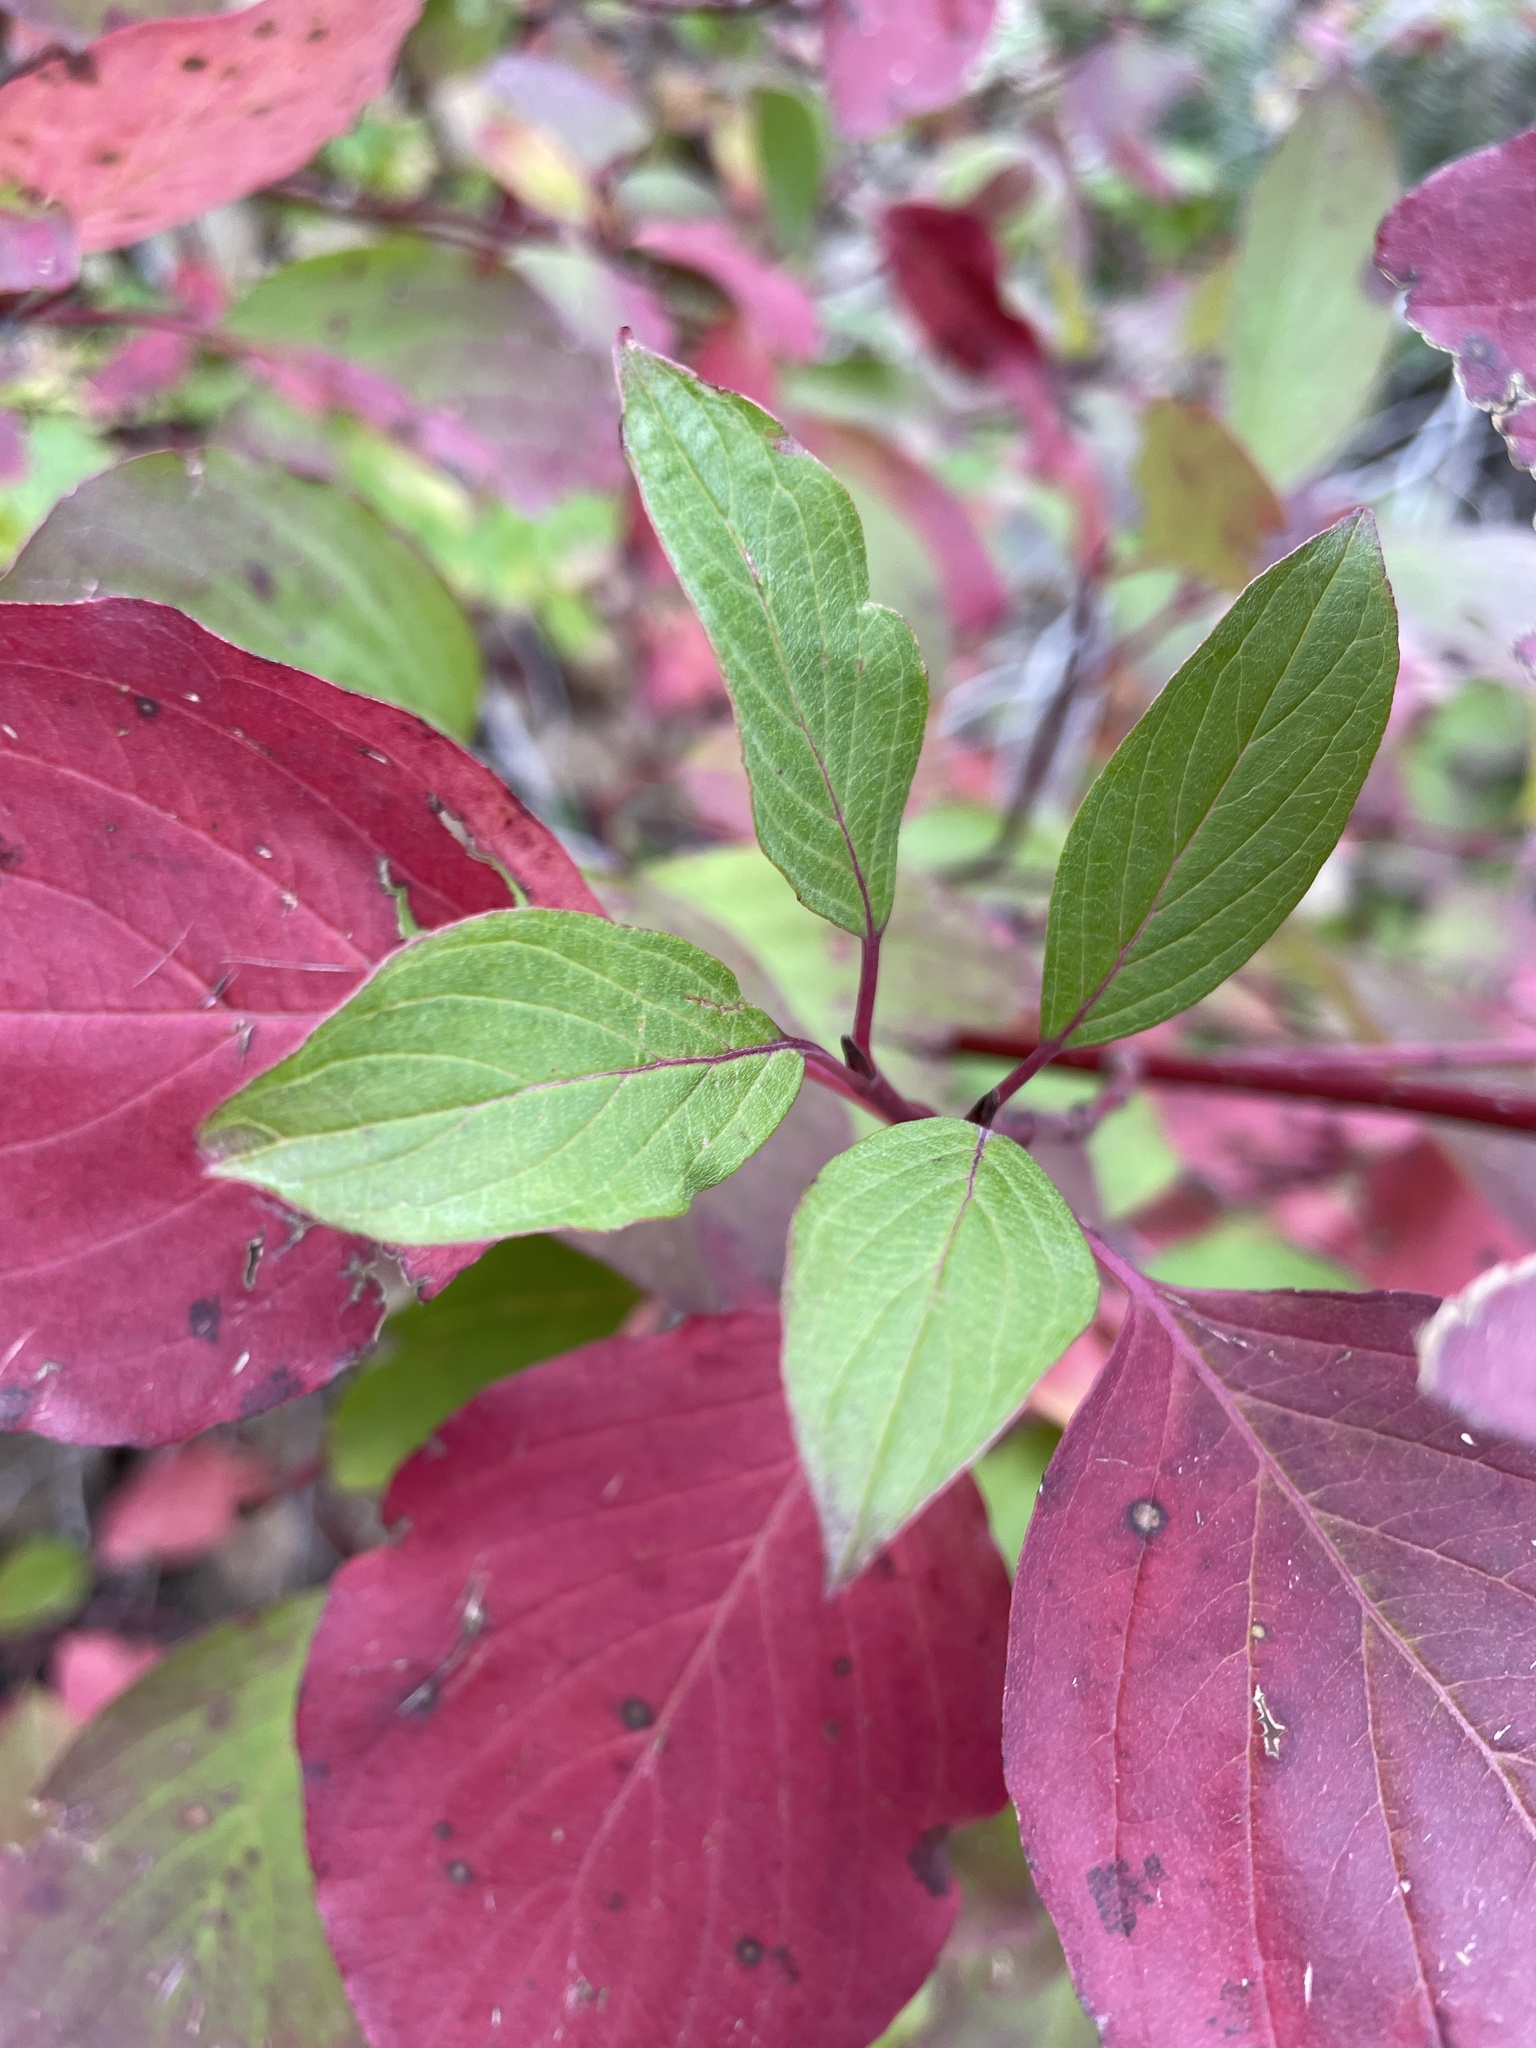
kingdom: Plantae
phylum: Tracheophyta
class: Magnoliopsida
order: Cornales
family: Cornaceae
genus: Cornus
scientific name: Cornus sericea
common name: Red-osier dogwood
